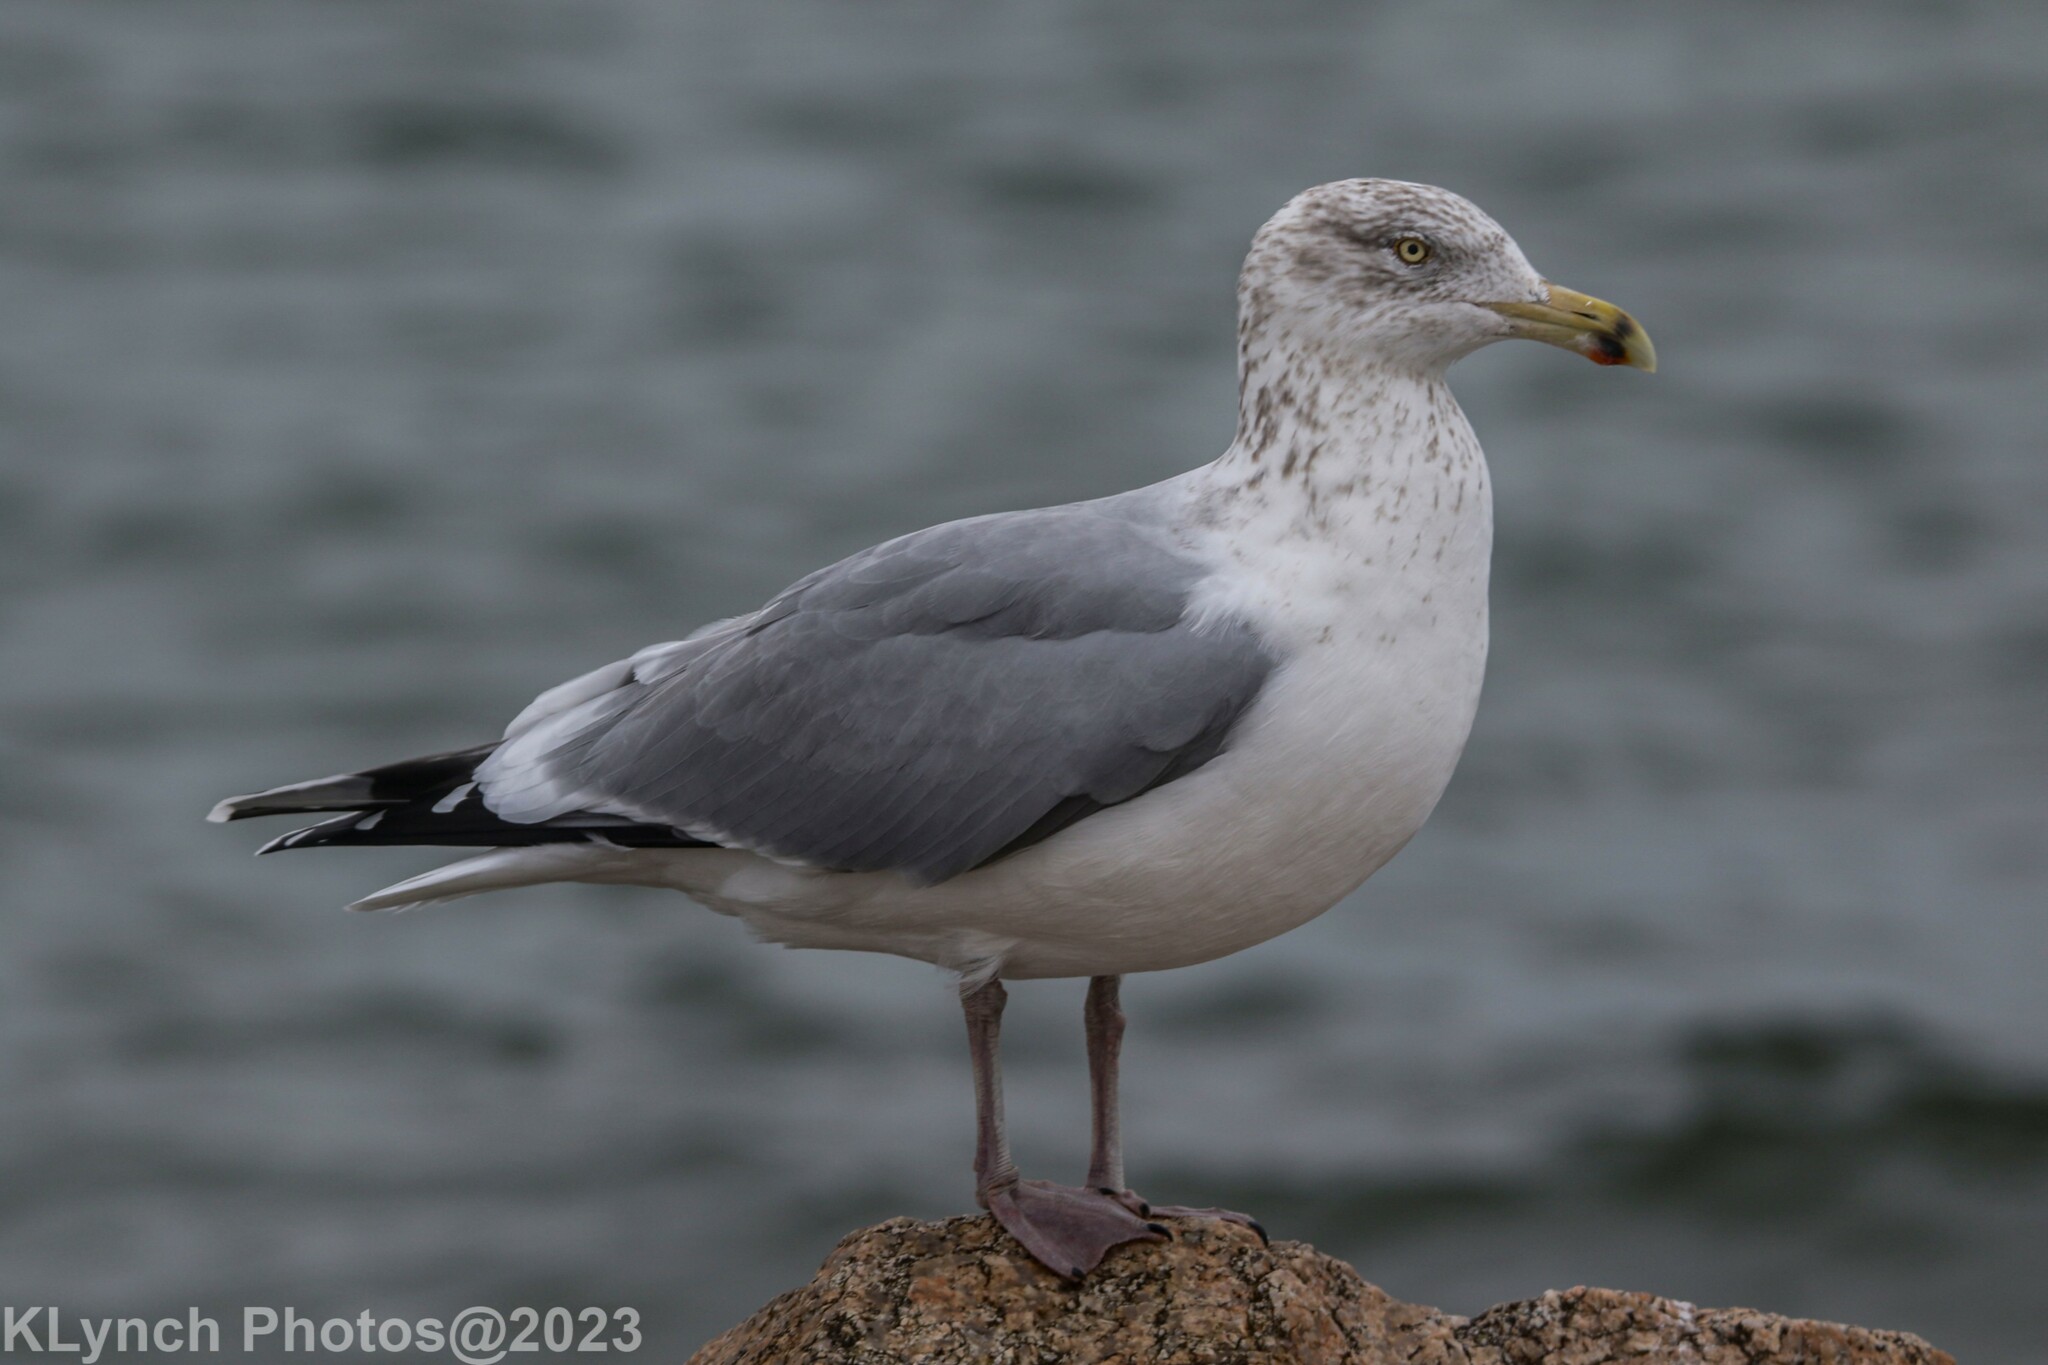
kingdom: Animalia
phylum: Chordata
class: Aves
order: Charadriiformes
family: Laridae
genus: Larus
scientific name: Larus argentatus
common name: Herring gull
